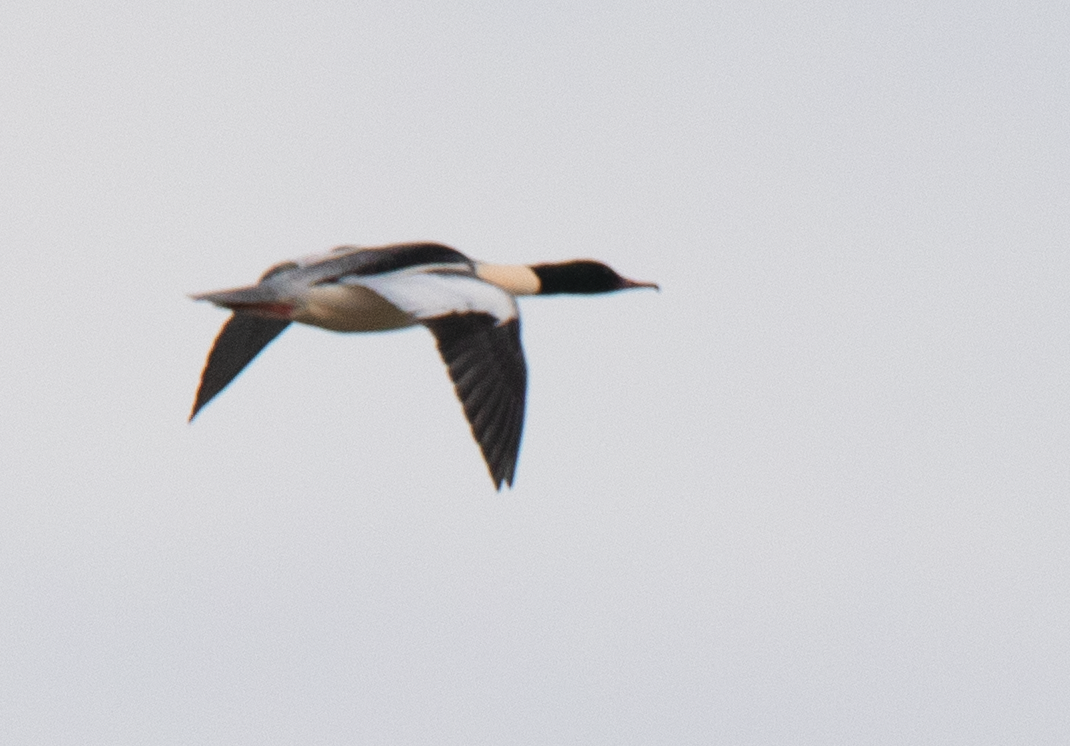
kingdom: Animalia
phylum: Chordata
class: Aves
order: Anseriformes
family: Anatidae
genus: Mergus
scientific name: Mergus merganser
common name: Common merganser
